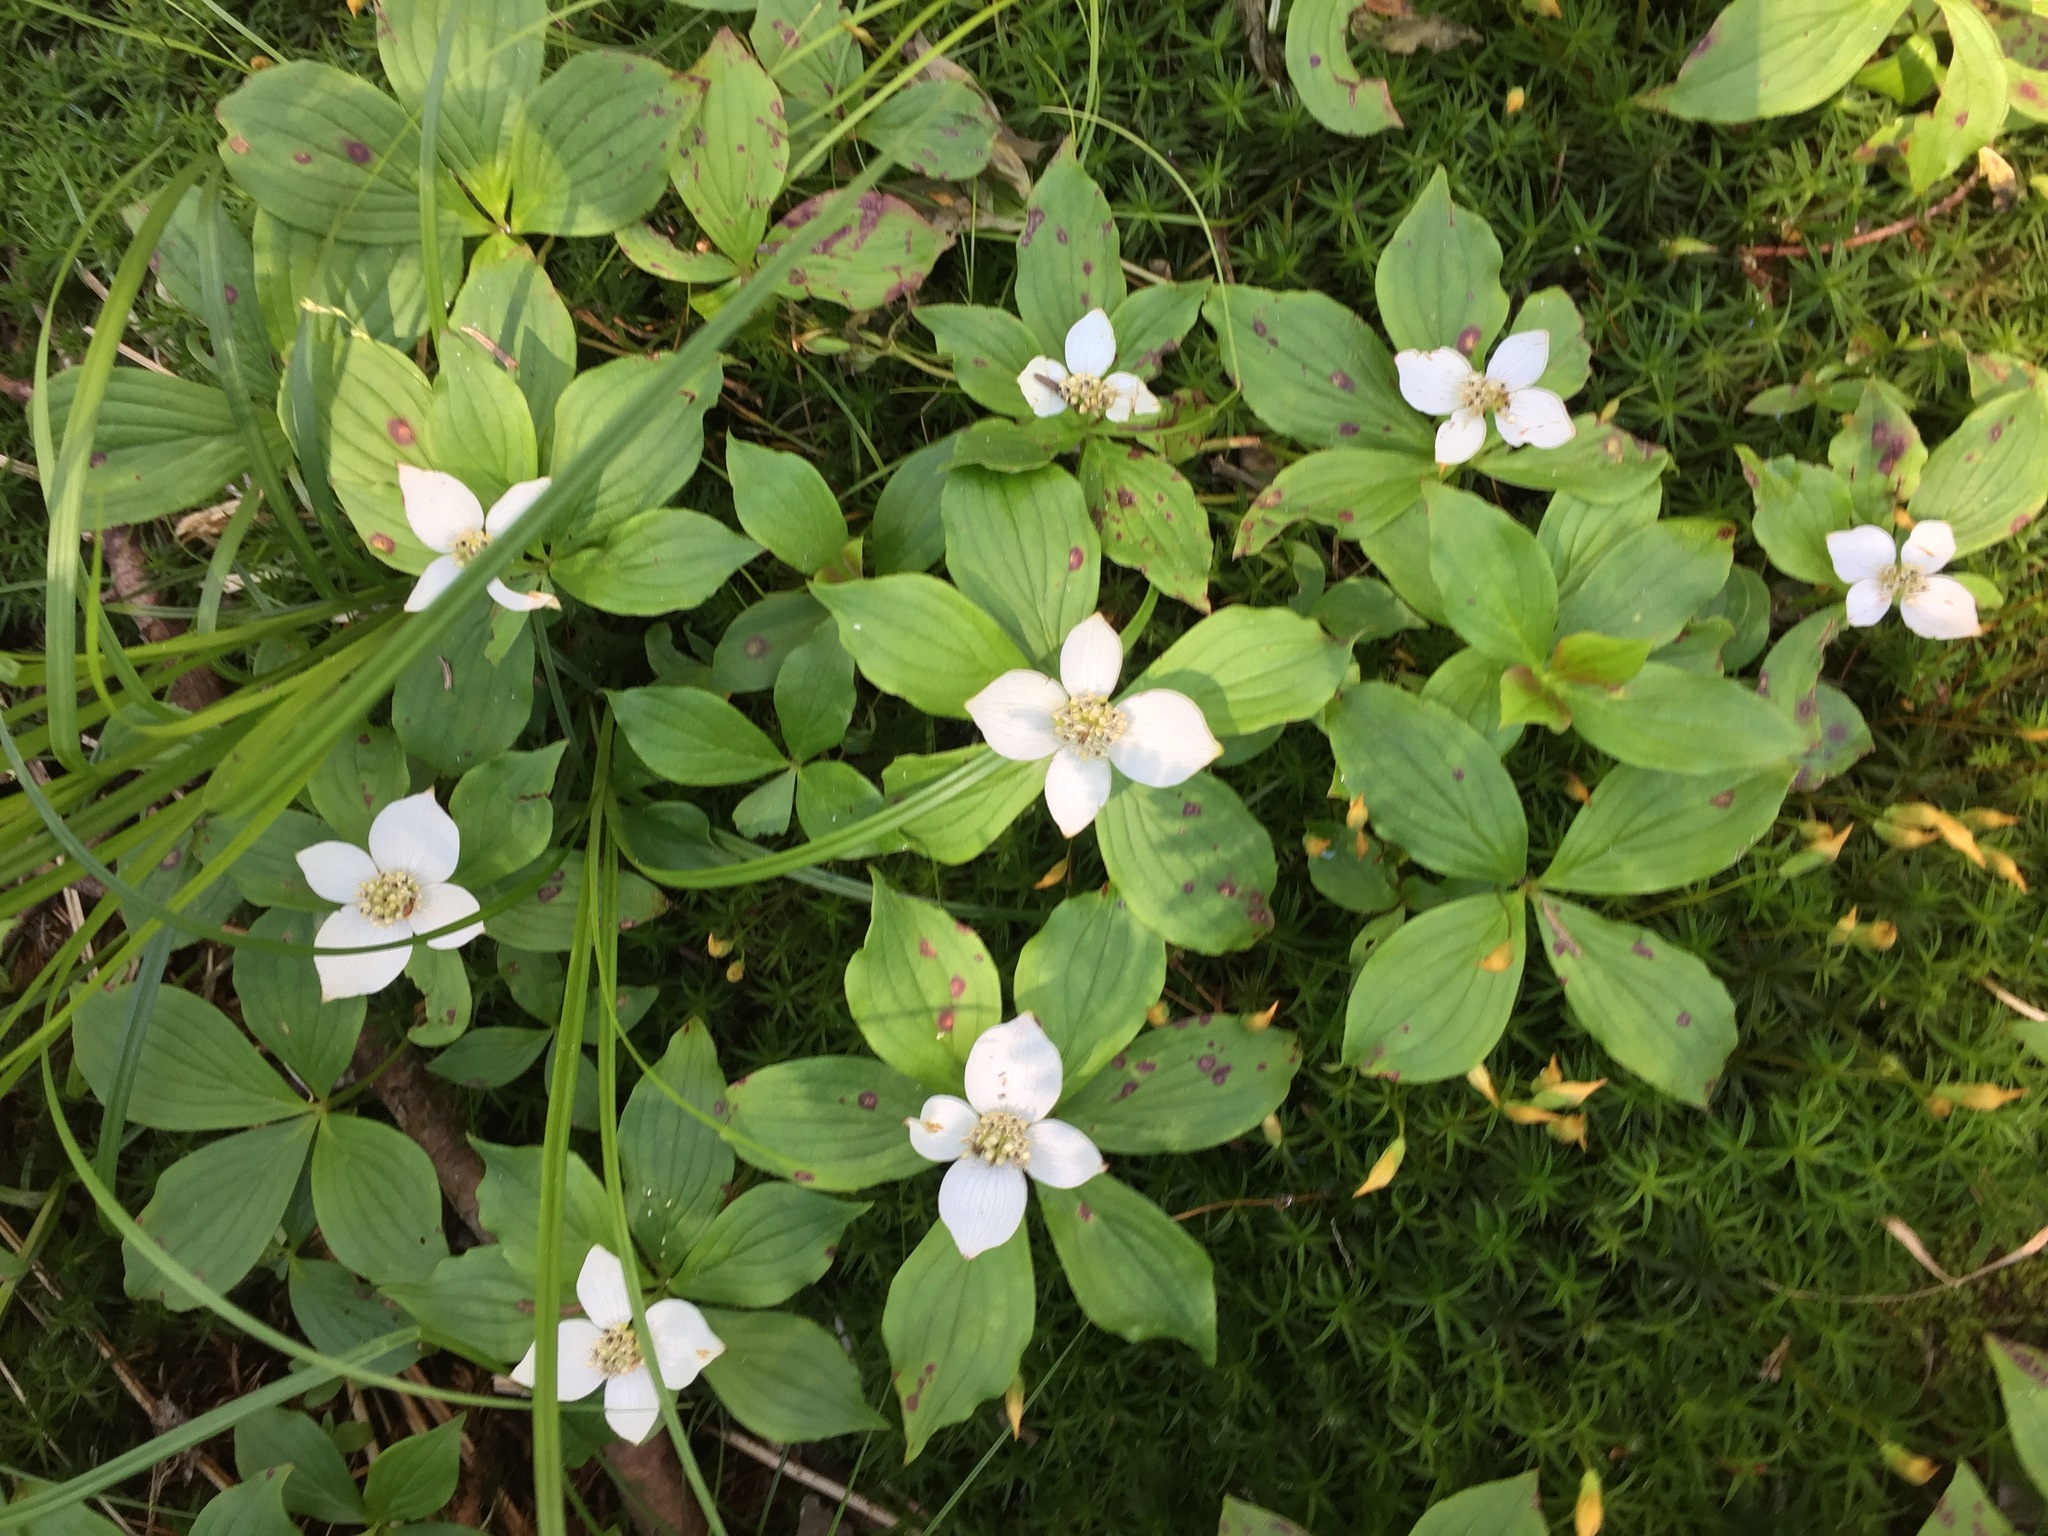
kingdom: Plantae
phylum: Tracheophyta
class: Magnoliopsida
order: Cornales
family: Cornaceae
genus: Cornus
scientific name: Cornus canadensis
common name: Creeping dogwood
